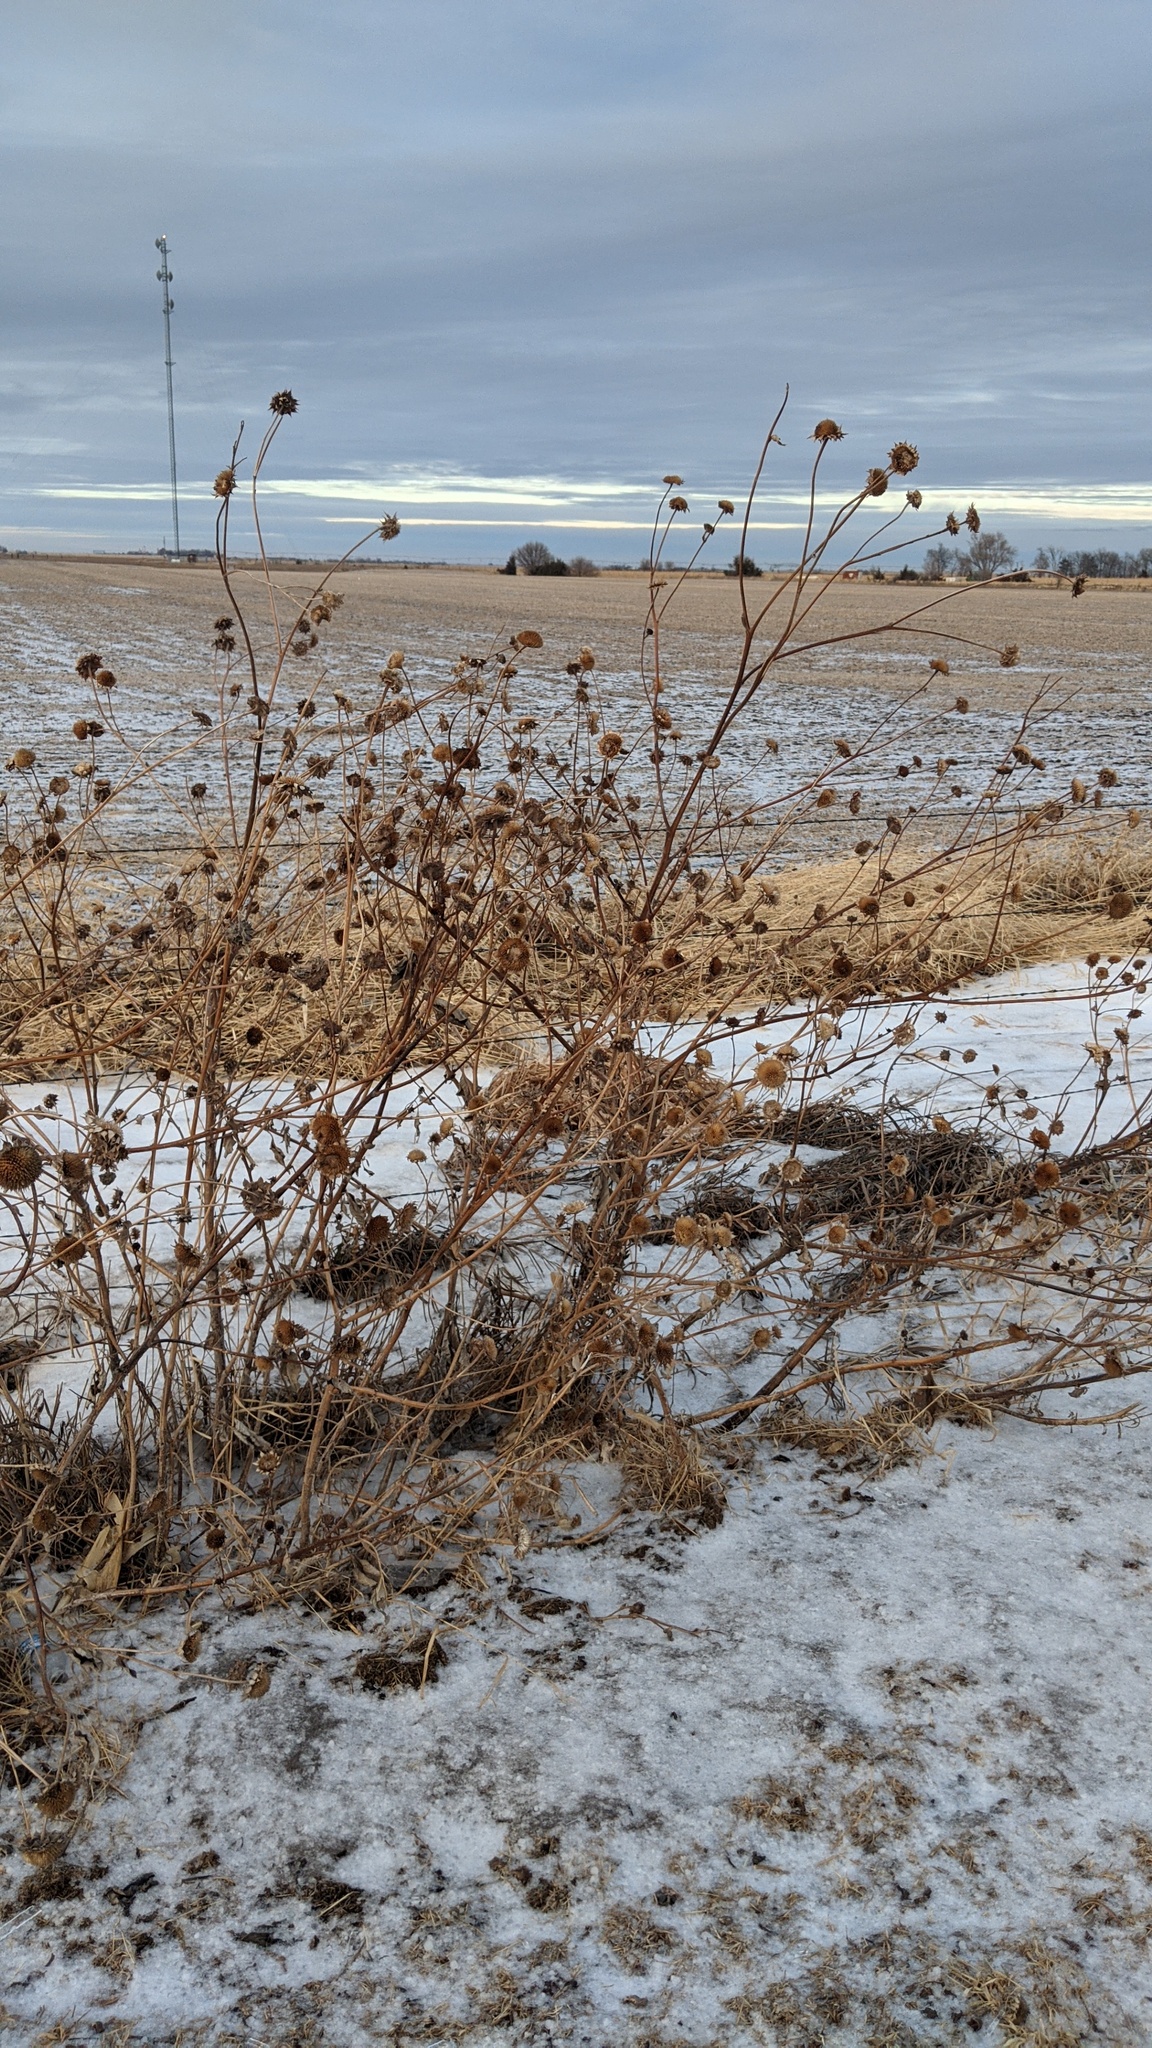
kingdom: Plantae
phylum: Tracheophyta
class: Magnoliopsida
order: Asterales
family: Asteraceae
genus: Helianthus
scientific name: Helianthus annuus
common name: Sunflower
